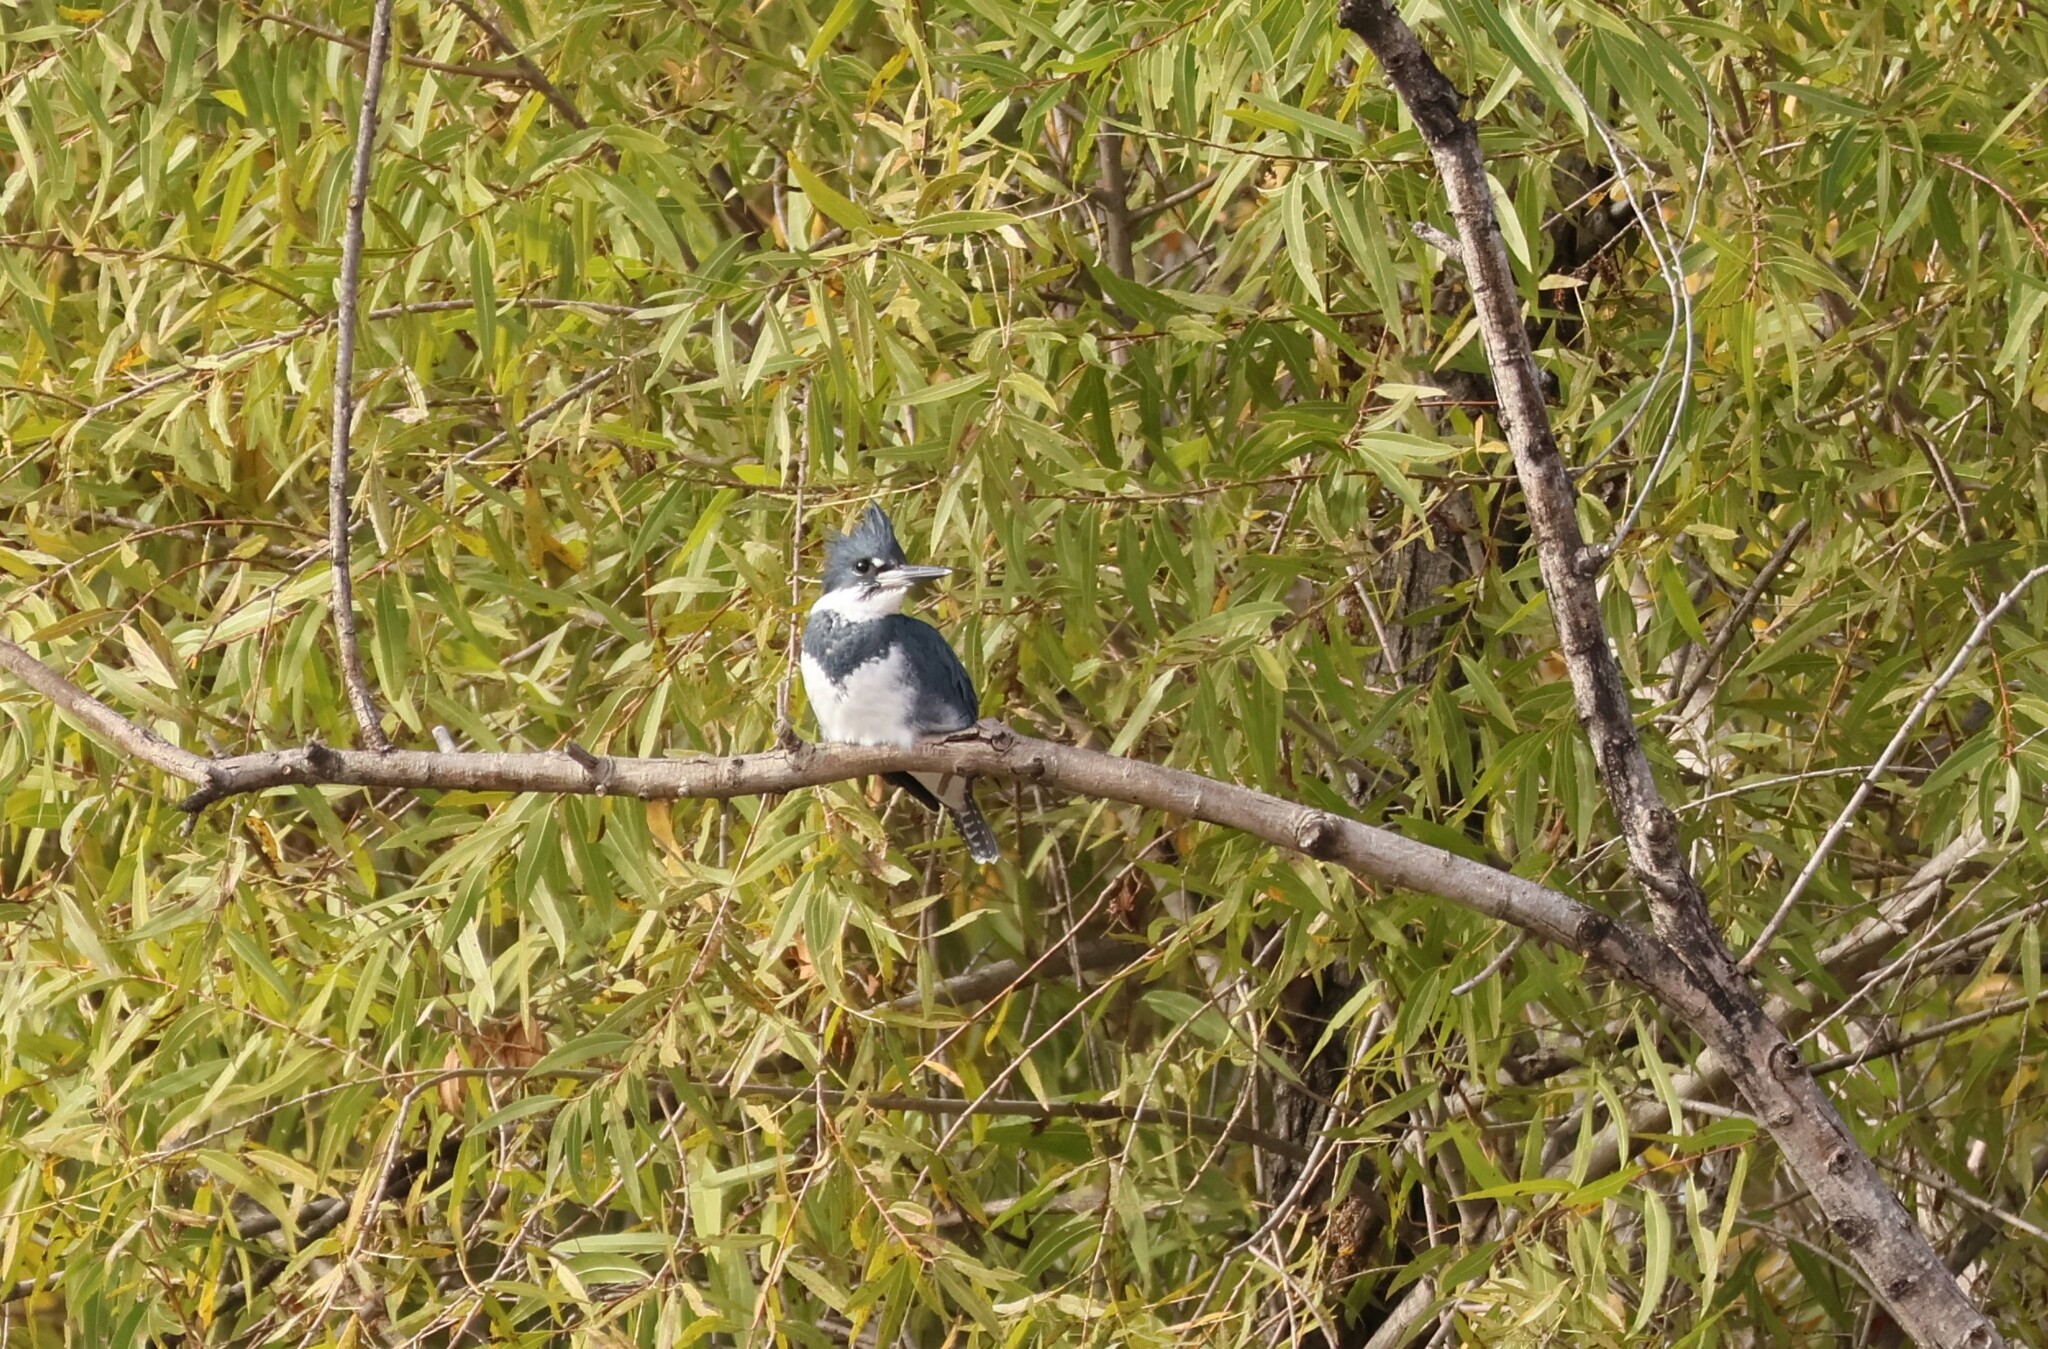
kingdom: Animalia
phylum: Chordata
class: Aves
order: Coraciiformes
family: Alcedinidae
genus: Megaceryle
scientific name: Megaceryle alcyon
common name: Belted kingfisher
